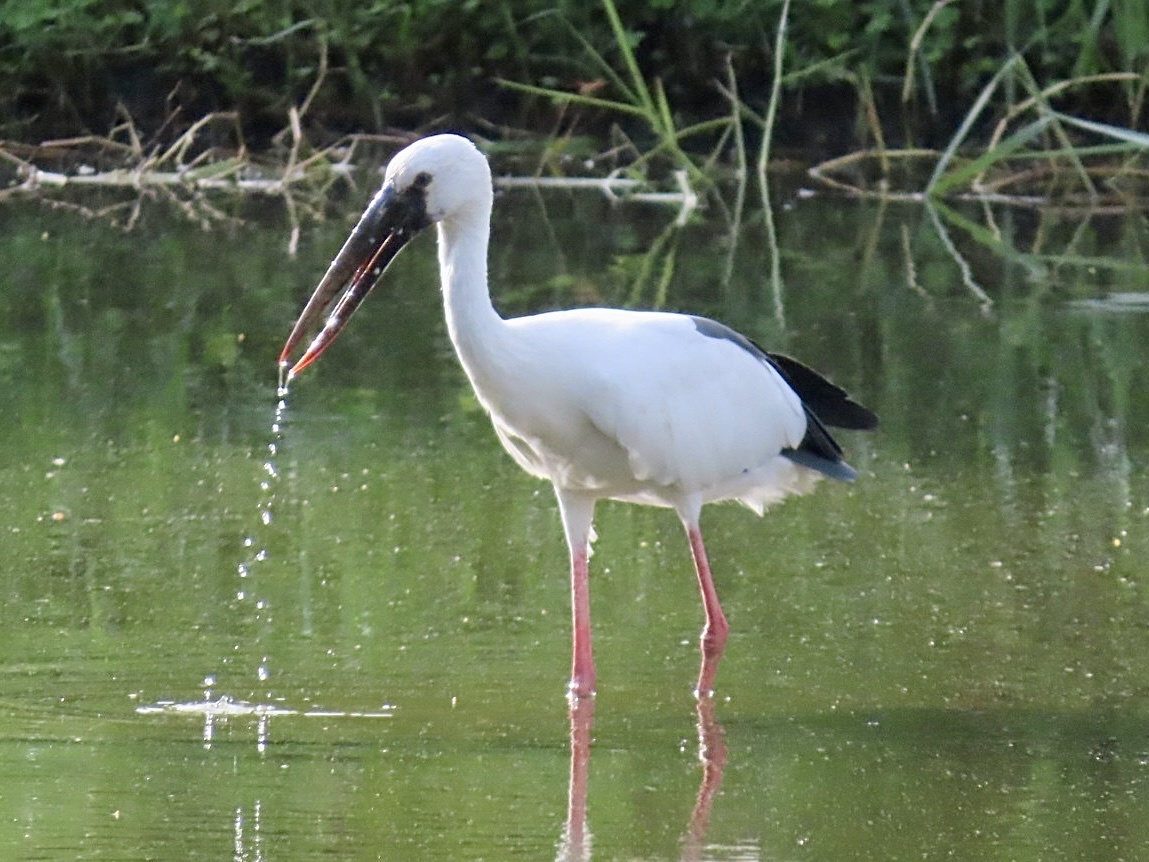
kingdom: Animalia
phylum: Chordata
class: Aves
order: Ciconiiformes
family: Ciconiidae
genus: Anastomus
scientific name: Anastomus oscitans
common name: Asian openbill
